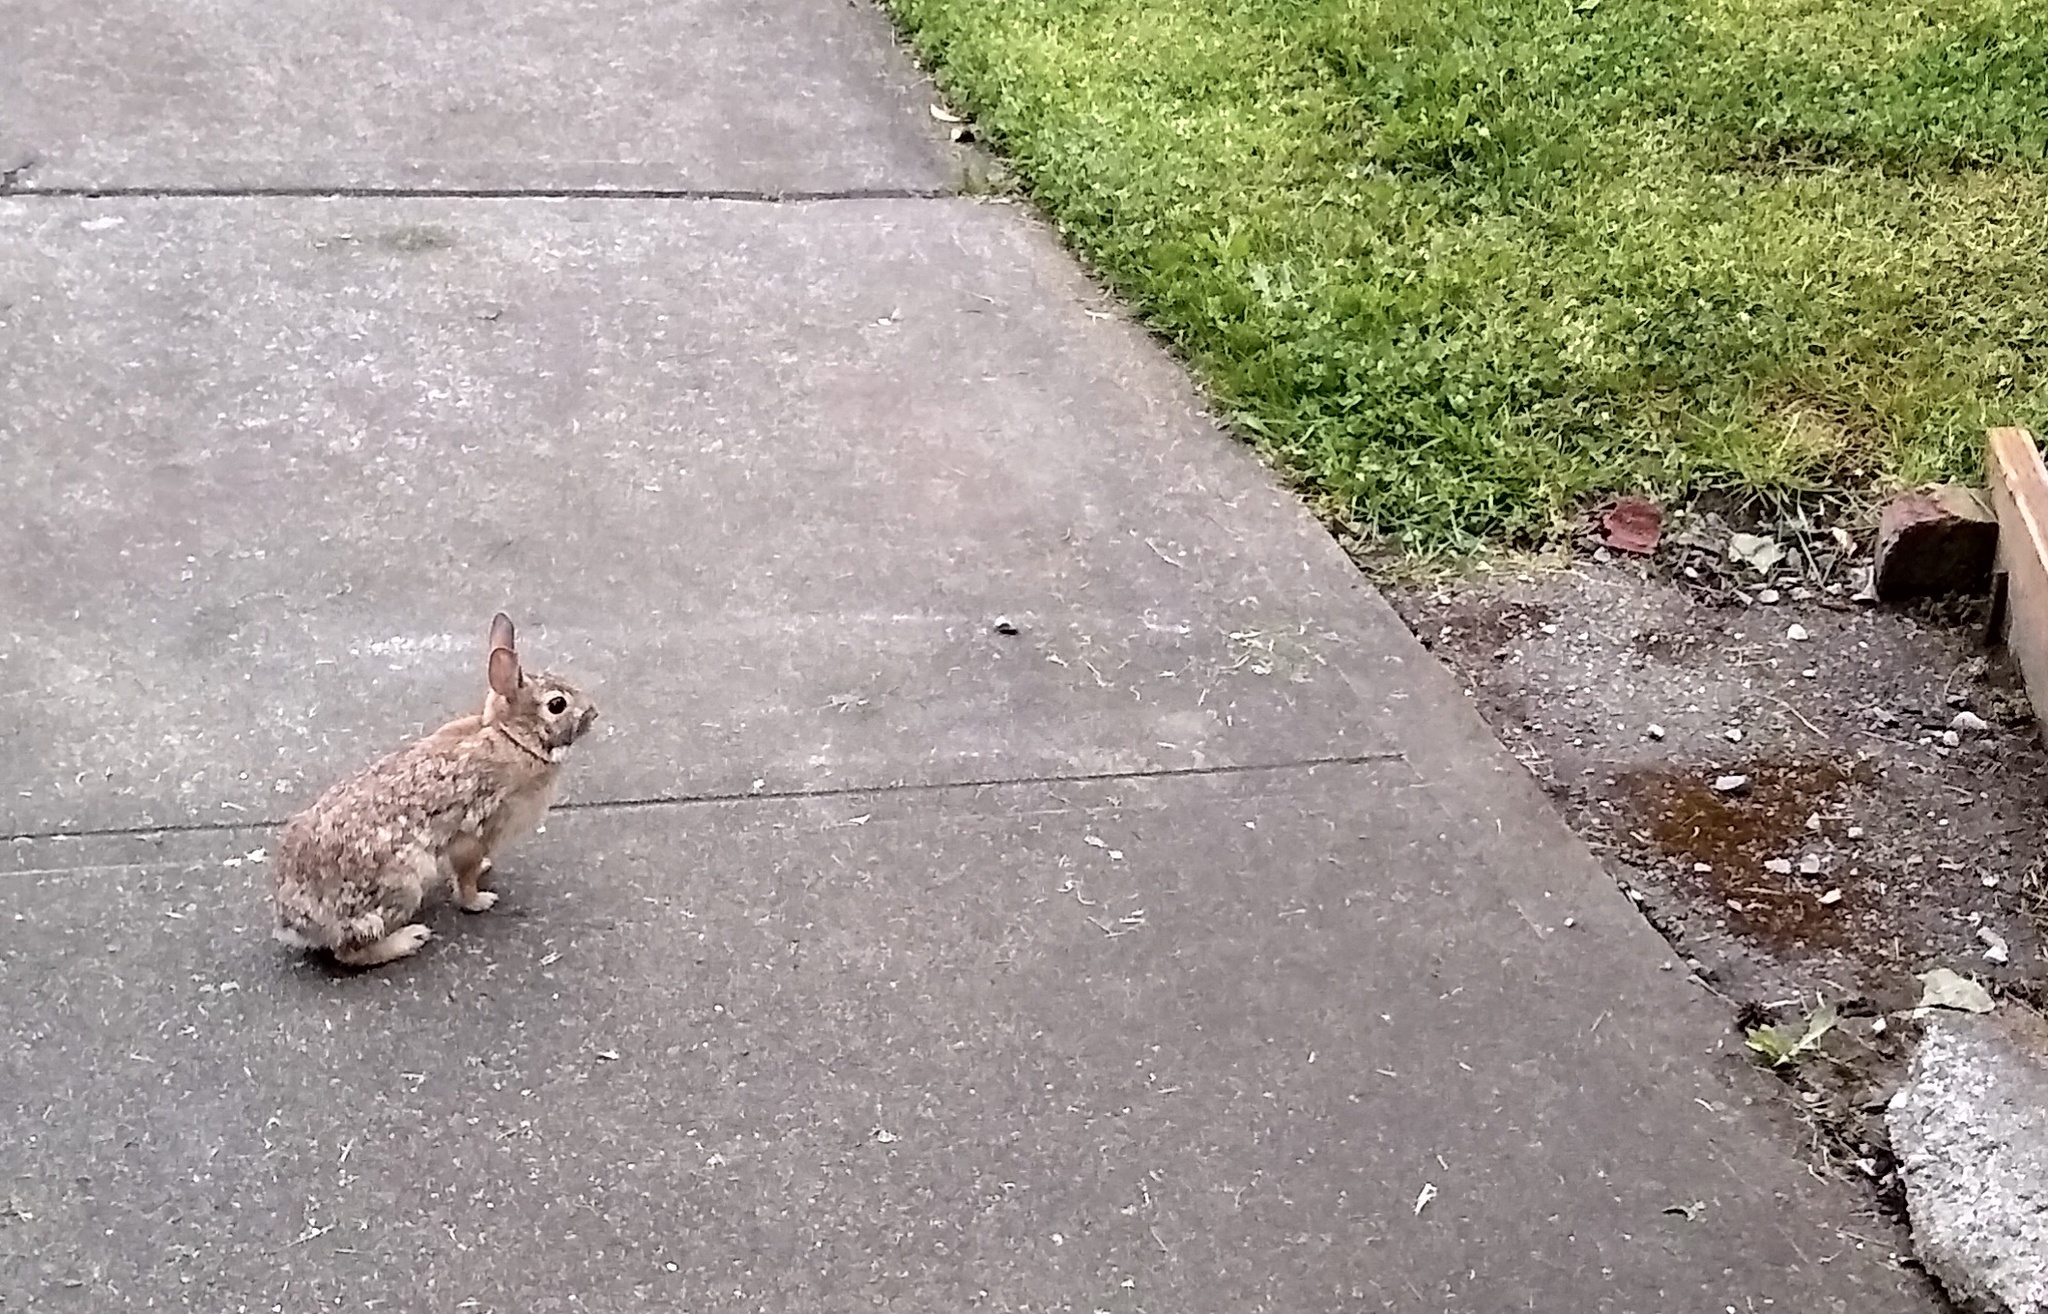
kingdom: Animalia
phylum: Chordata
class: Mammalia
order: Lagomorpha
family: Leporidae
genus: Sylvilagus
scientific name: Sylvilagus floridanus
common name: Eastern cottontail
